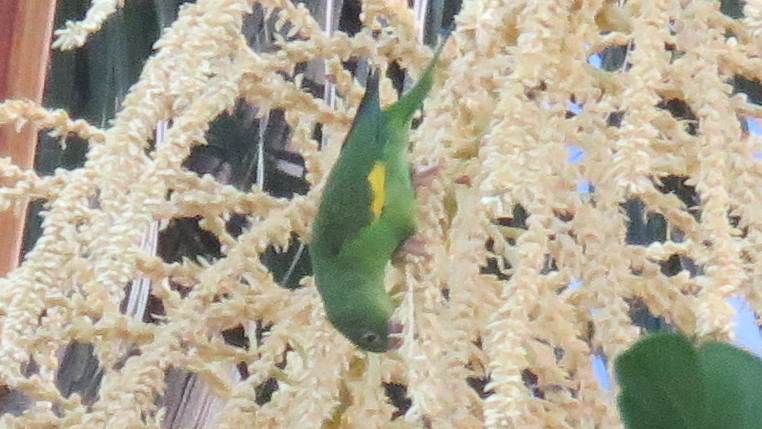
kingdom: Animalia
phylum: Chordata
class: Aves
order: Psittaciformes
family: Psittacidae
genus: Brotogeris
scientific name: Brotogeris chiriri
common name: Yellow-chevroned parakeet
